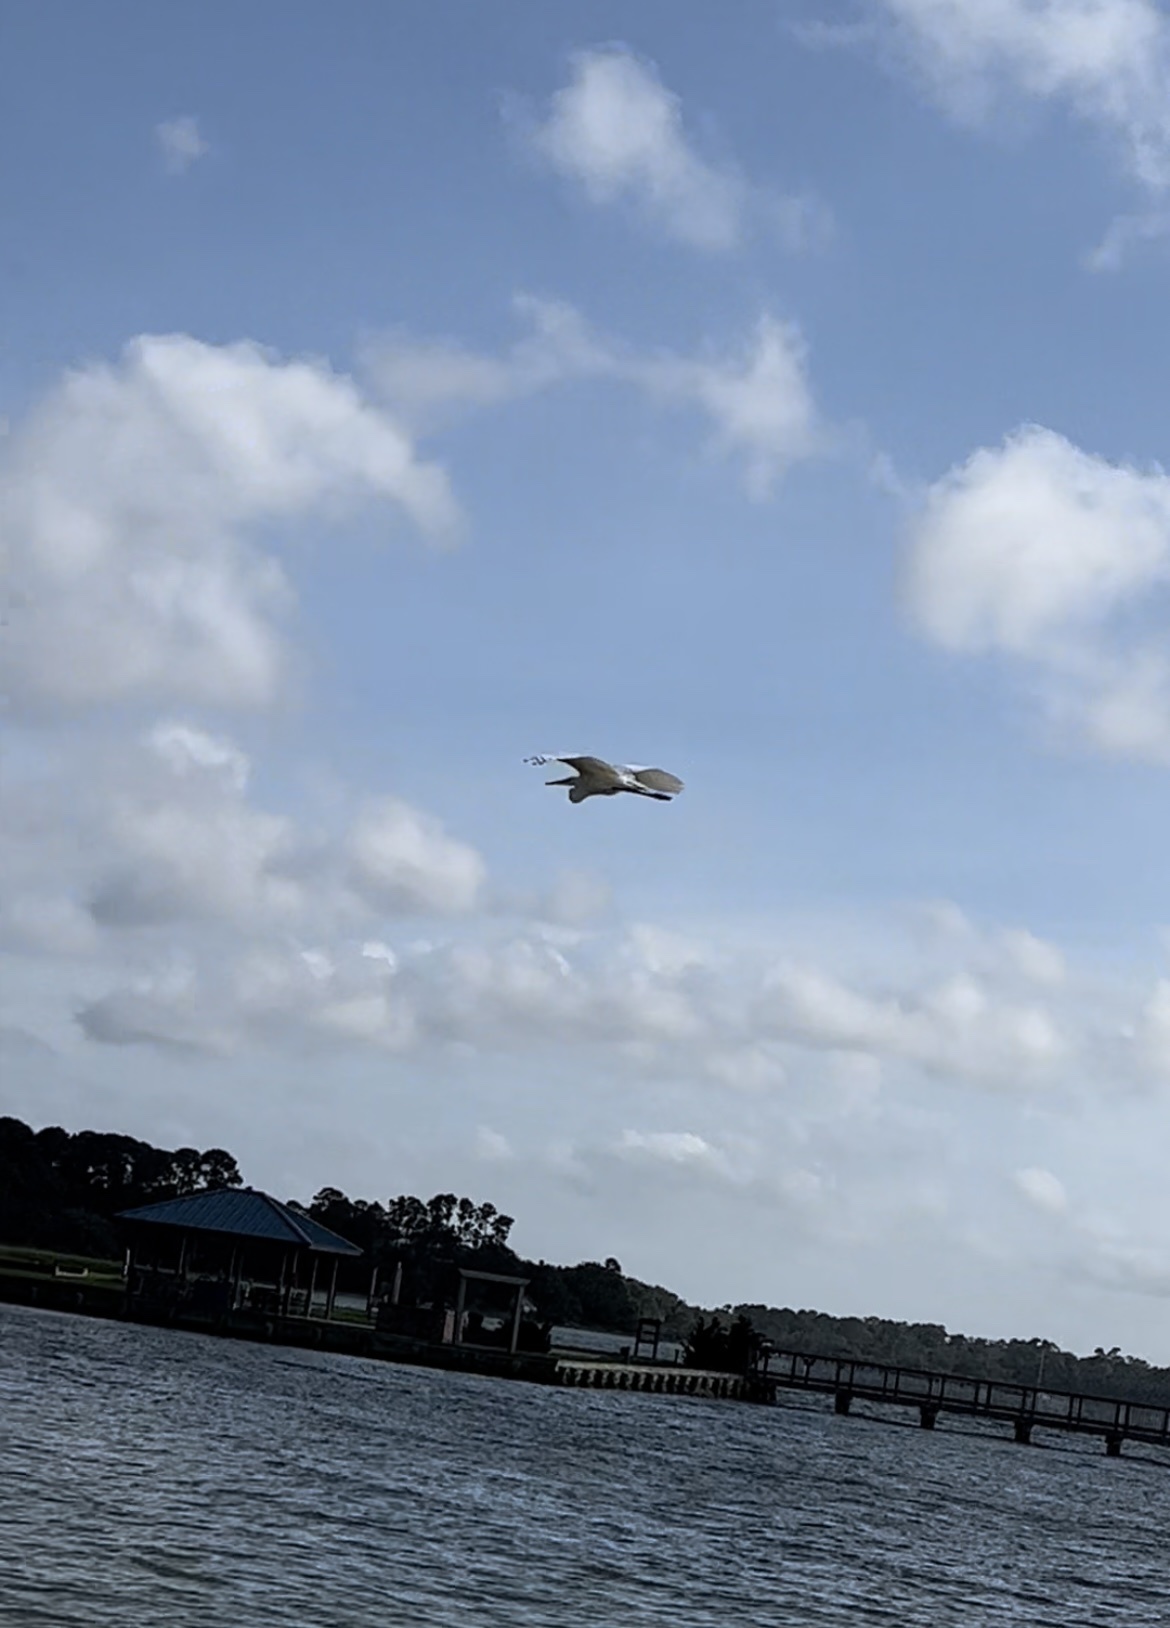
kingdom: Animalia
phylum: Chordata
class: Aves
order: Pelecaniformes
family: Ardeidae
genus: Ardea
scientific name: Ardea alba
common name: Great egret
